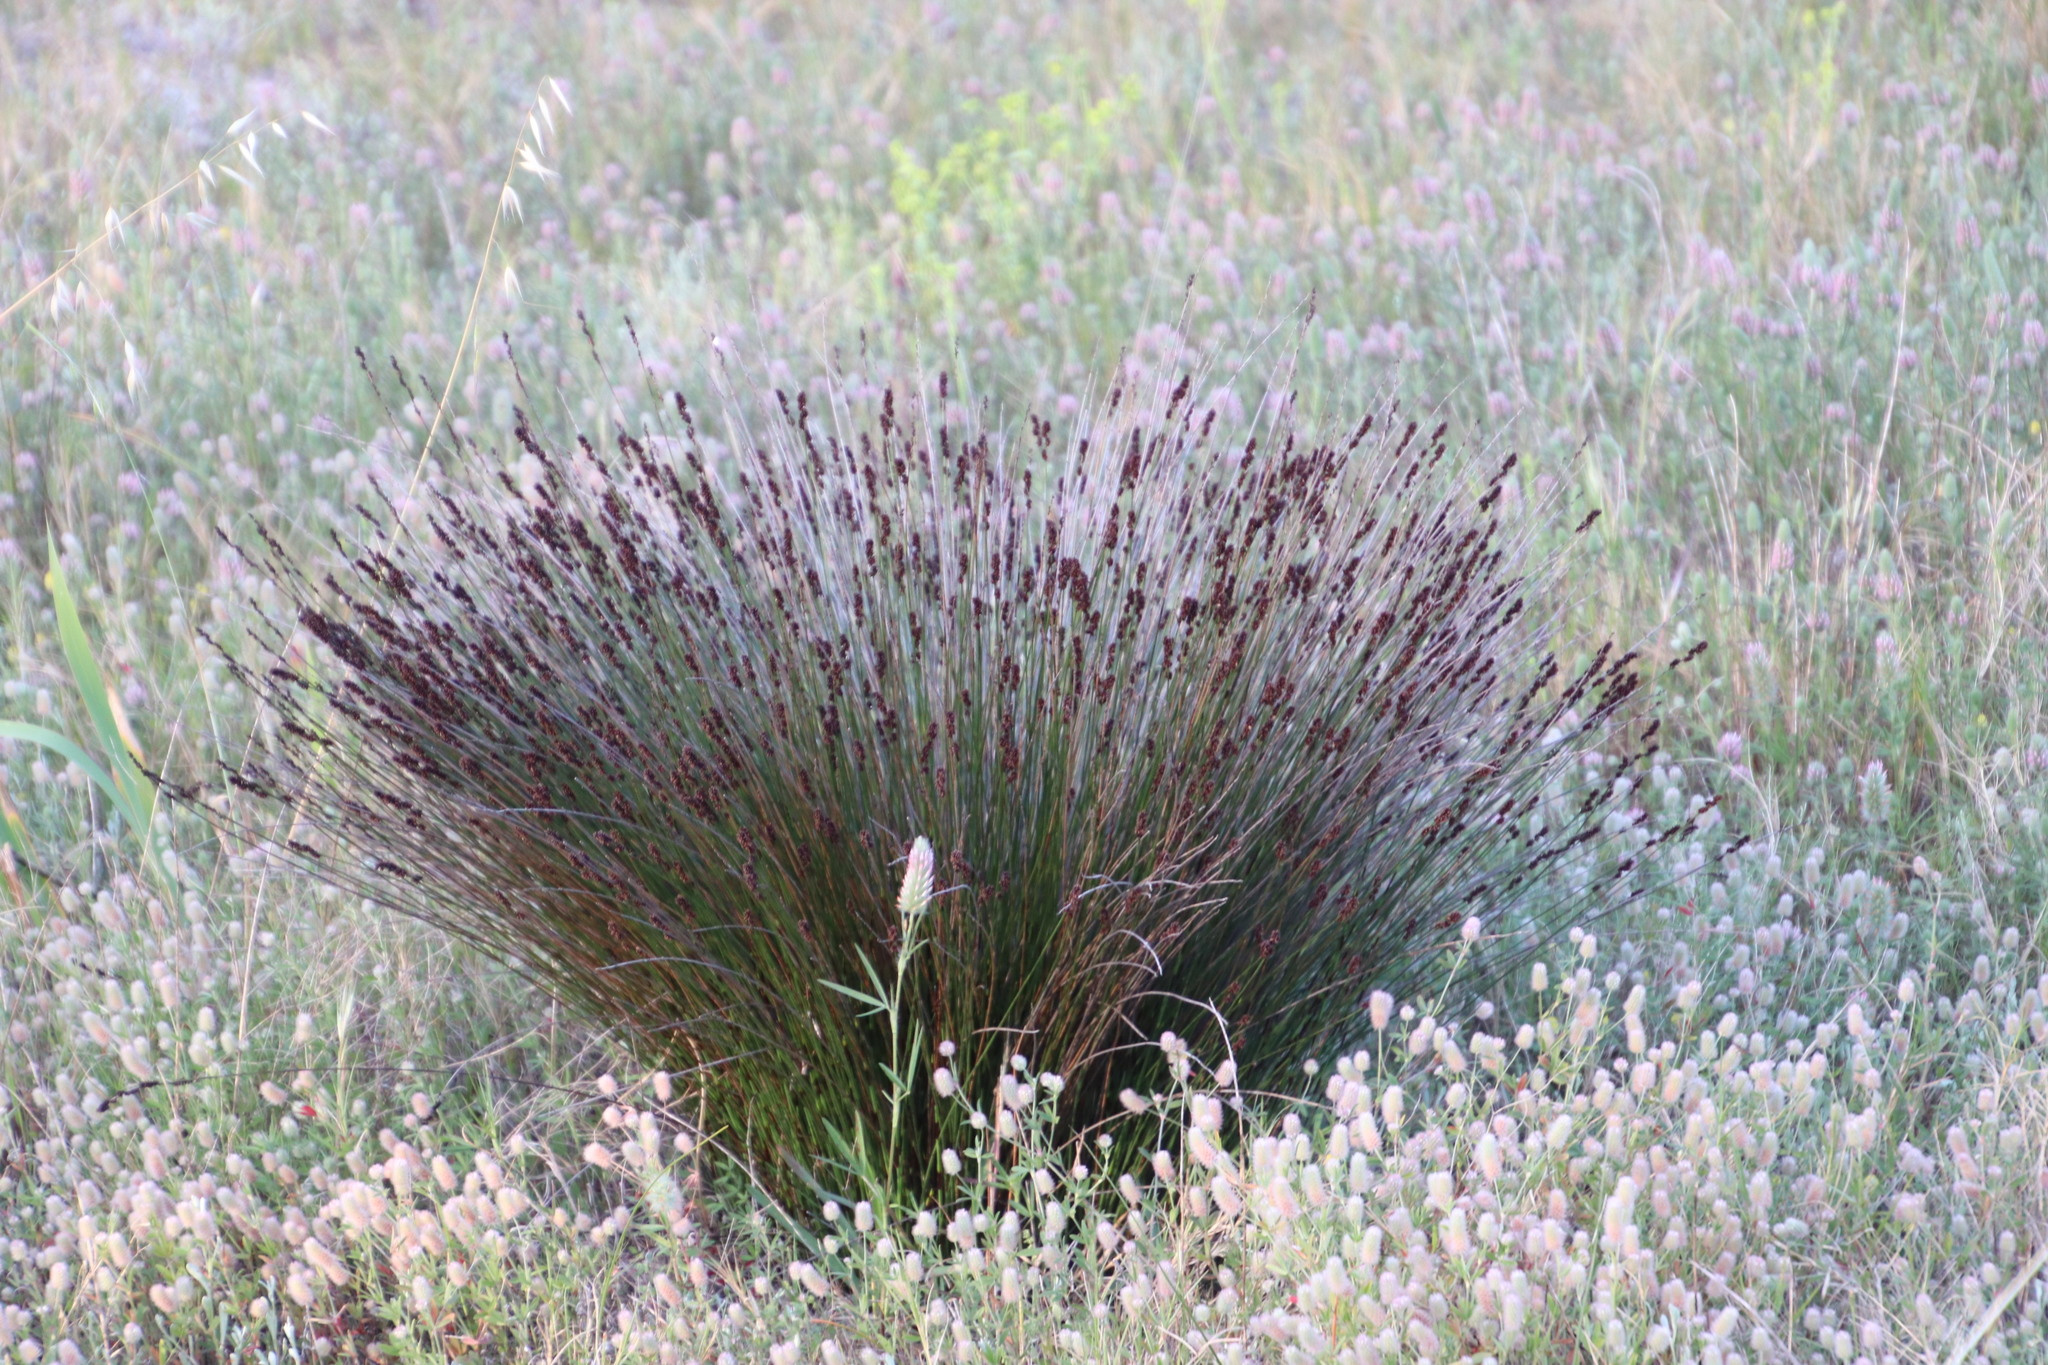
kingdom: Plantae
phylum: Tracheophyta
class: Liliopsida
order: Poales
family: Restionaceae
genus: Elegia
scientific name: Elegia nuda
